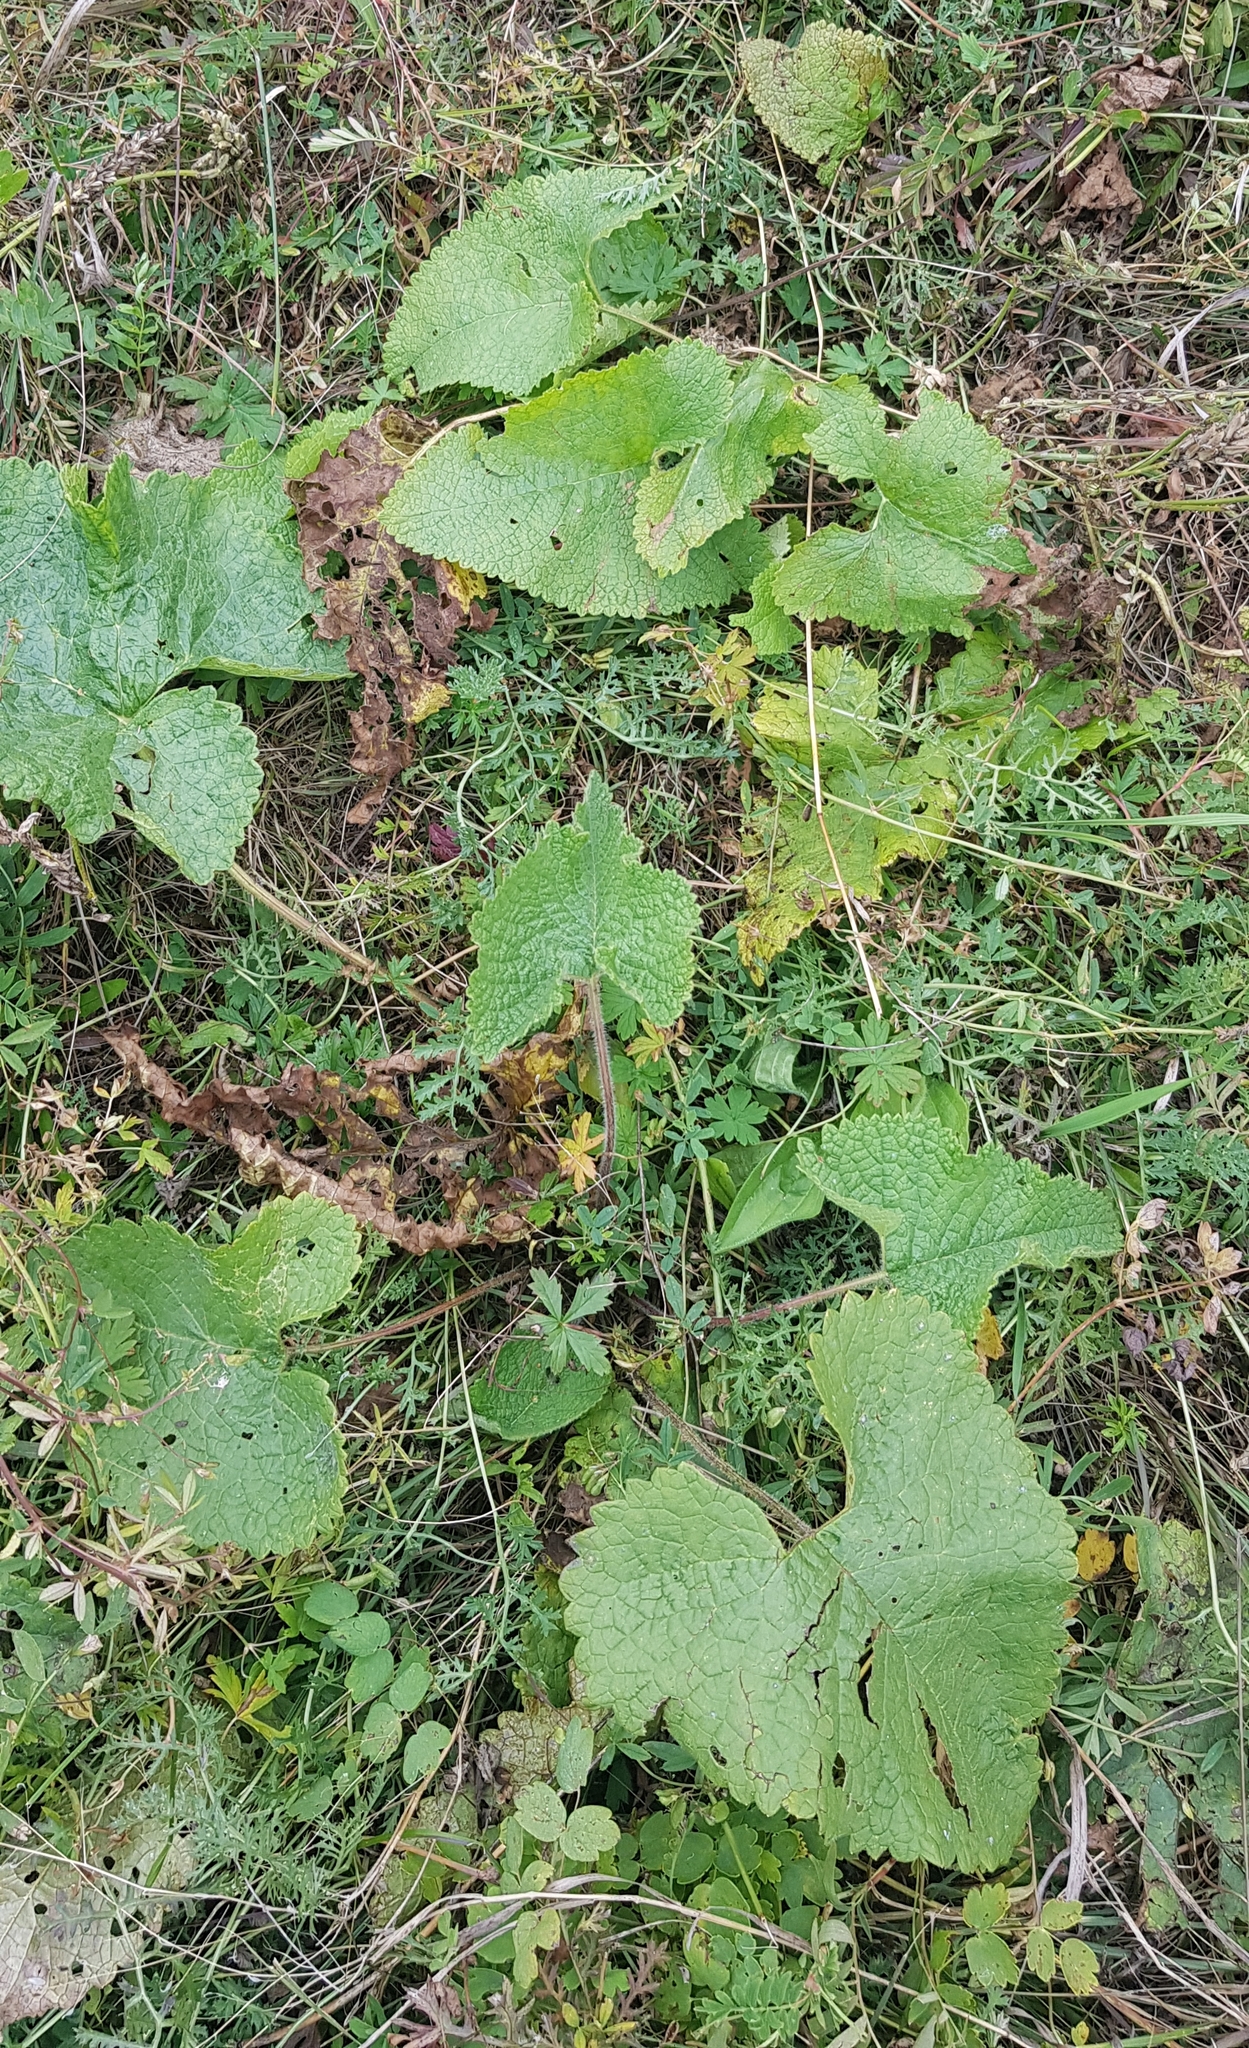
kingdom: Plantae
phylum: Tracheophyta
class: Magnoliopsida
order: Lamiales
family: Lamiaceae
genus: Phlomoides
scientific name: Phlomoides tuberosa
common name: Tuberous jerusalem sage
